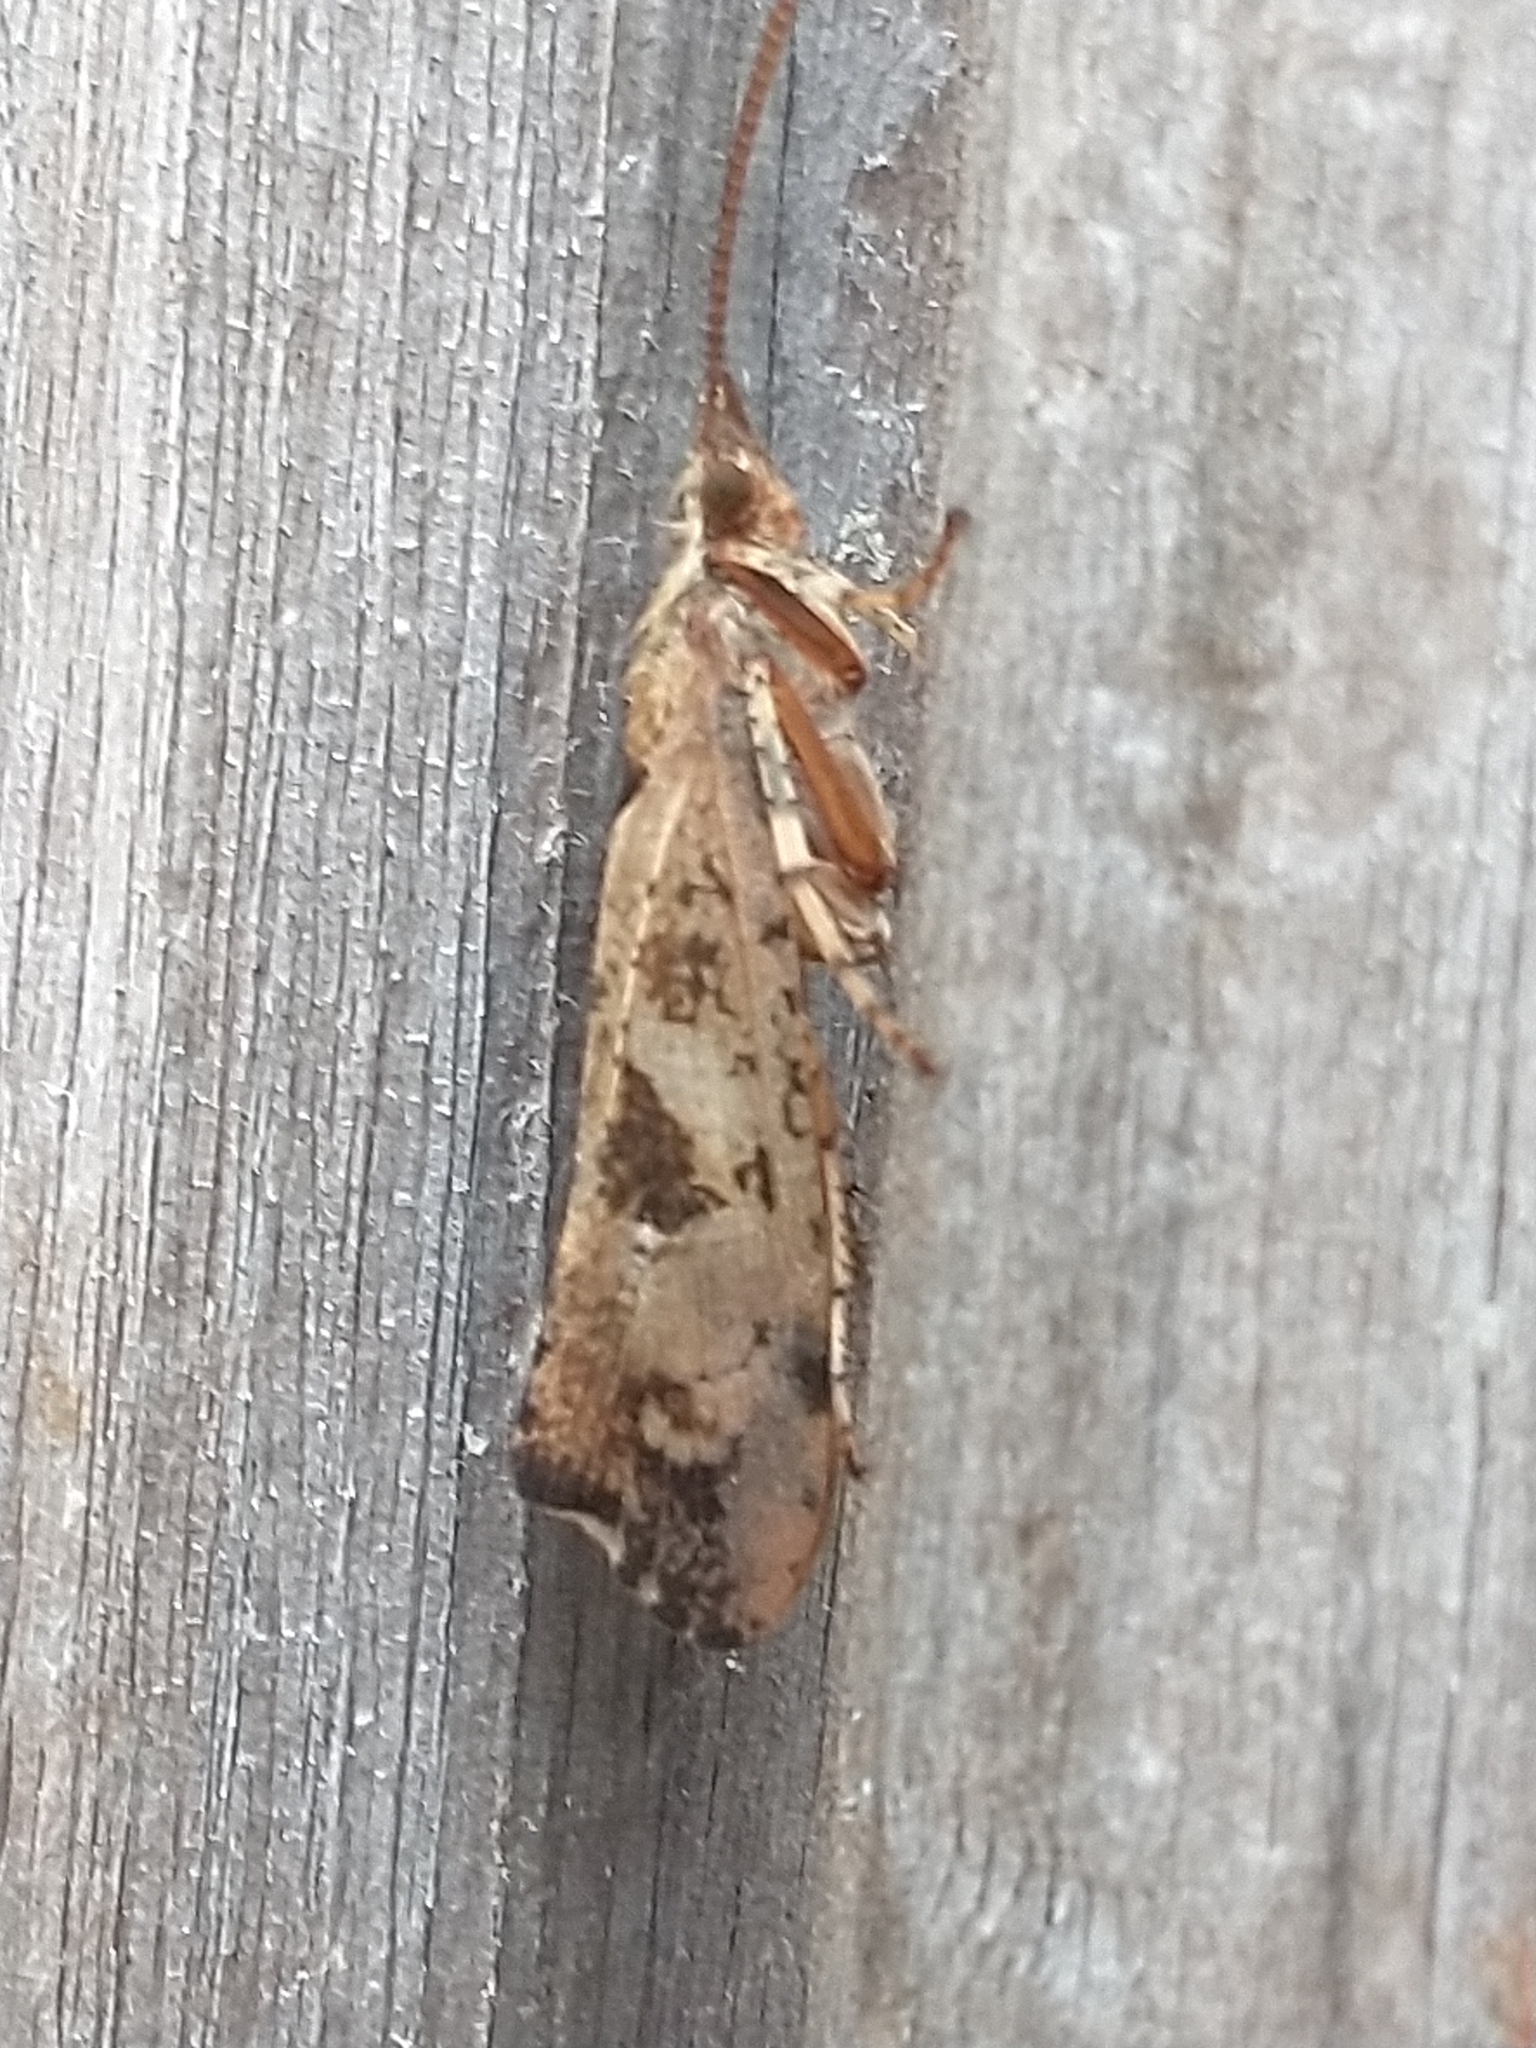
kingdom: Animalia
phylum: Arthropoda
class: Insecta
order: Trichoptera
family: Limnephilidae
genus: Glyphotaelius
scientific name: Glyphotaelius pellucidus
